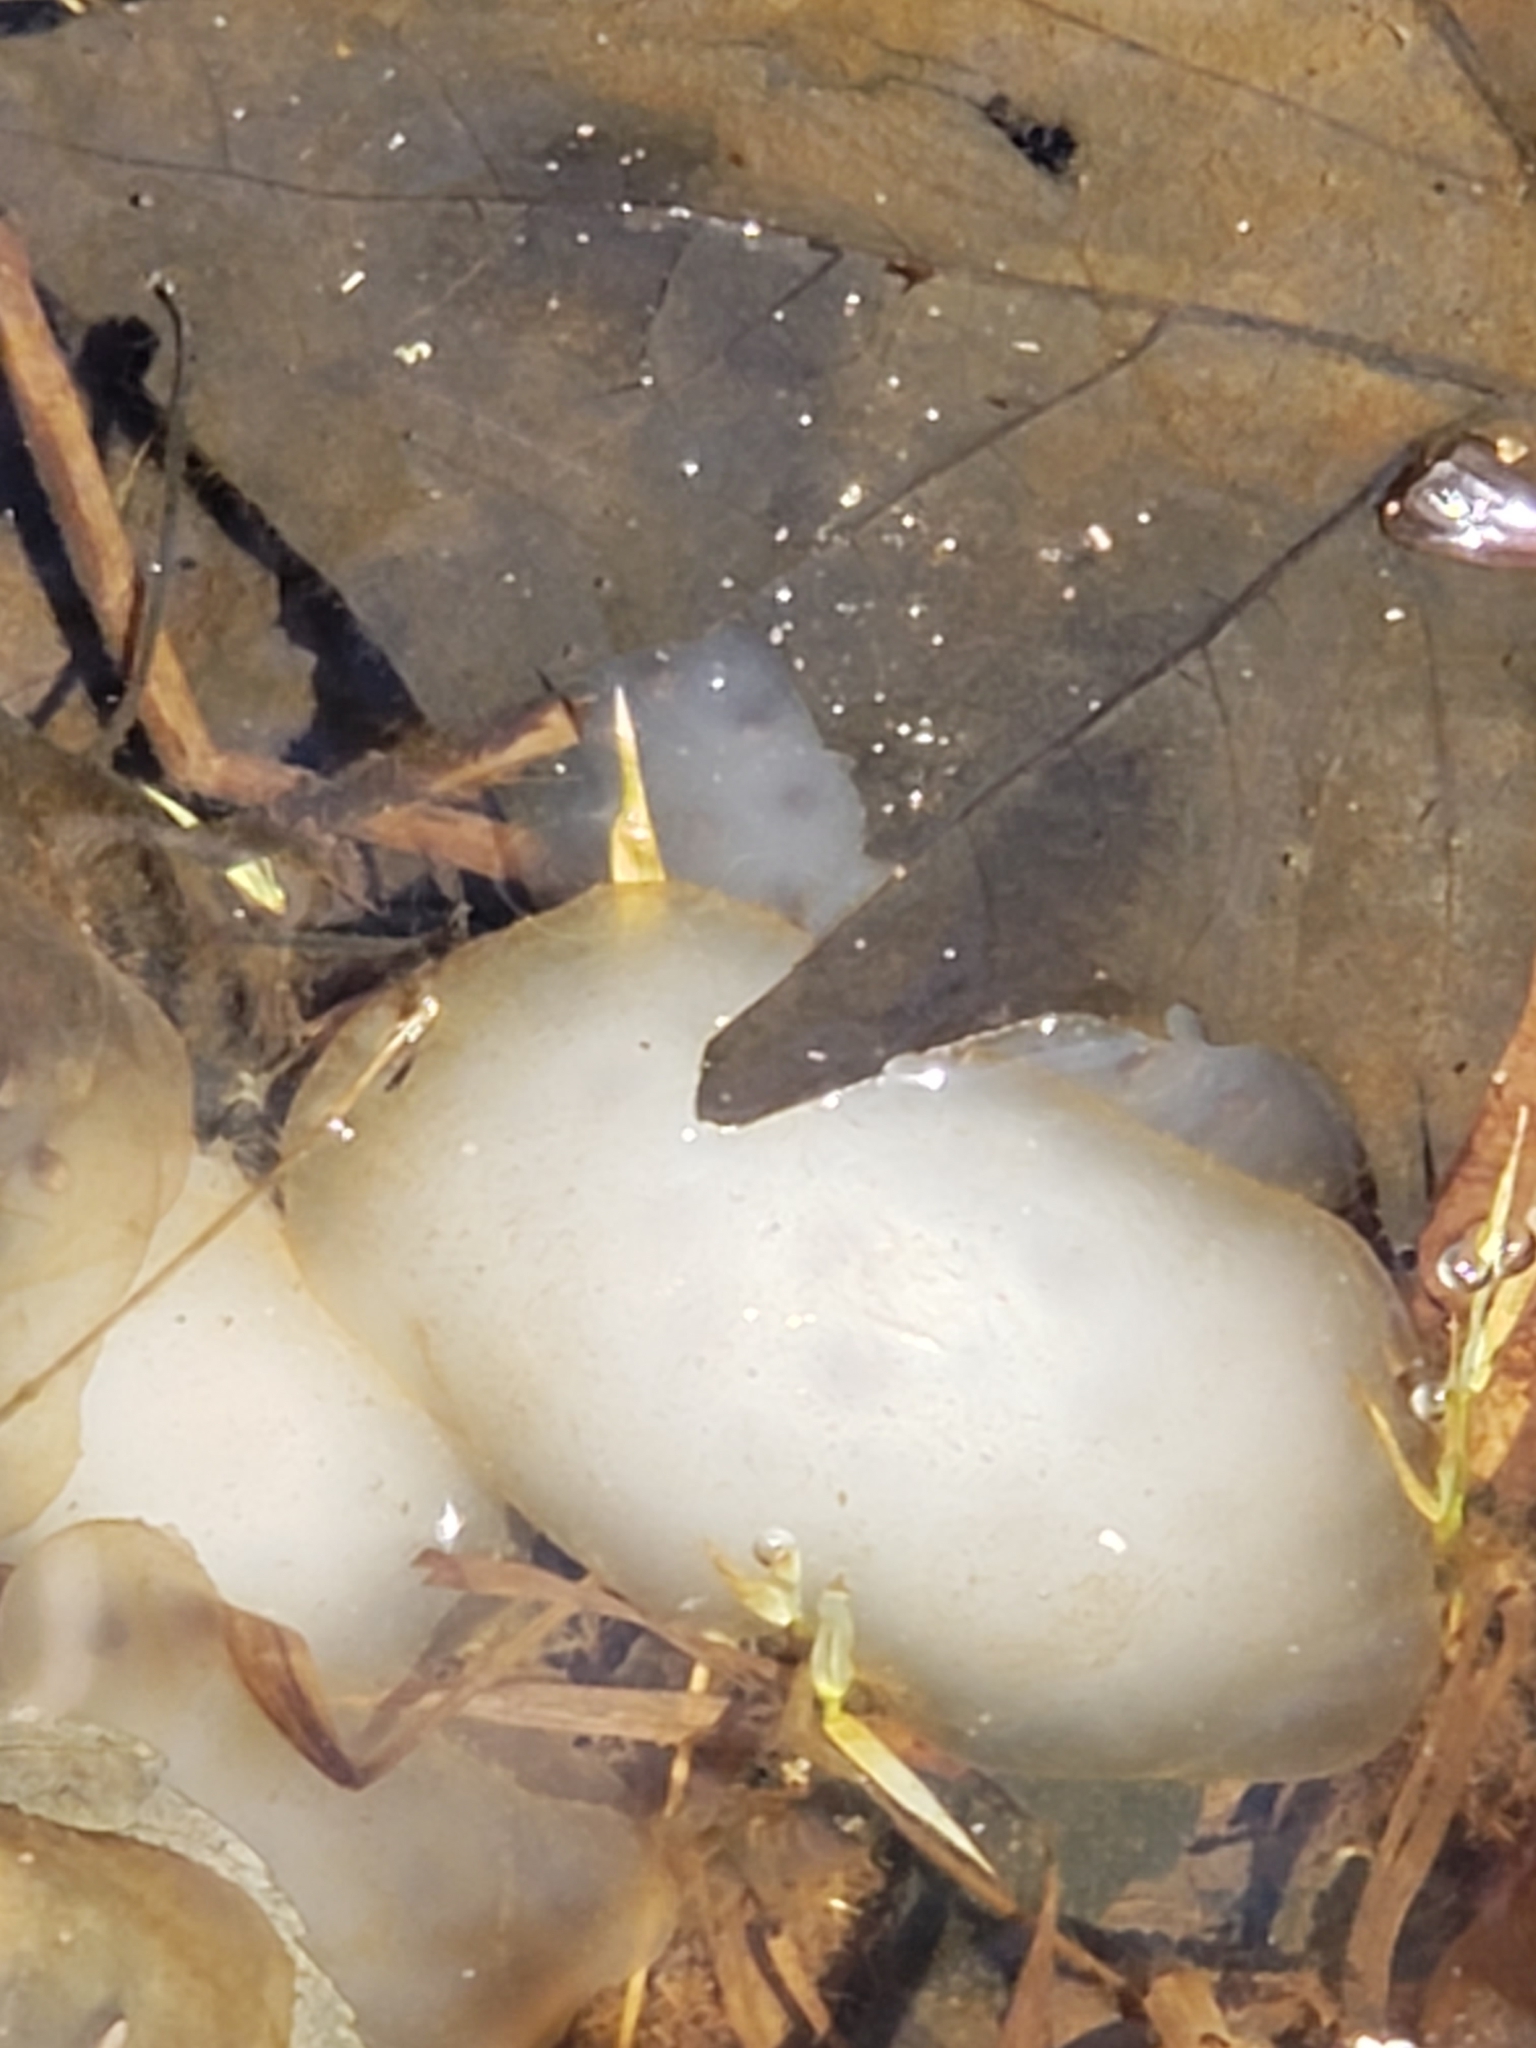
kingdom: Animalia
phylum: Chordata
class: Amphibia
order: Caudata
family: Ambystomatidae
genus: Ambystoma
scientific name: Ambystoma maculatum
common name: Spotted salamander
